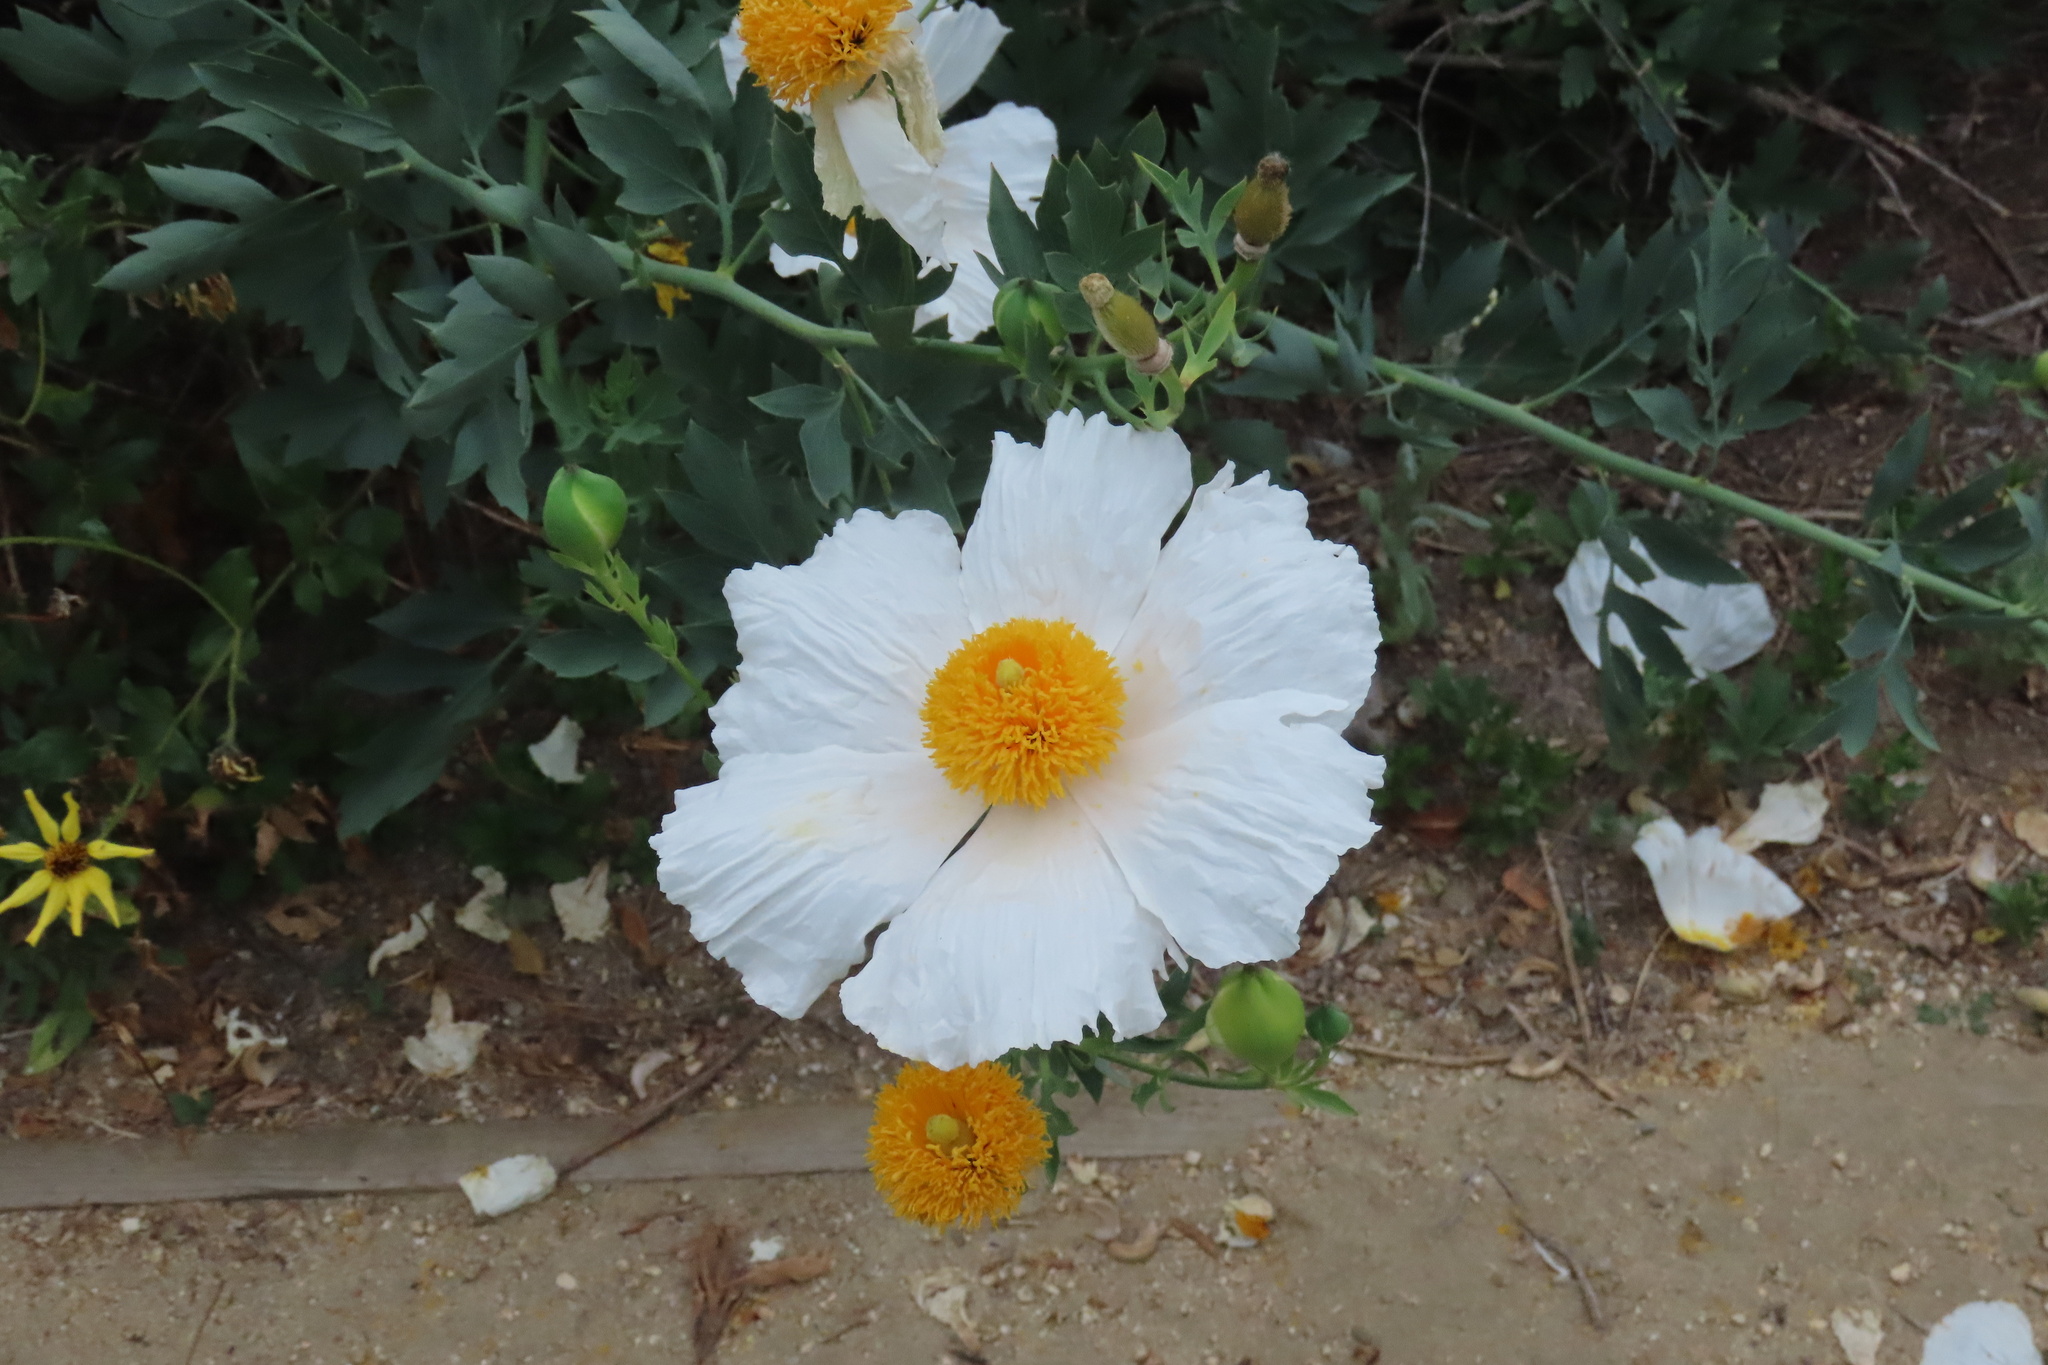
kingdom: Plantae
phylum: Tracheophyta
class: Magnoliopsida
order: Ranunculales
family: Papaveraceae
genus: Romneya
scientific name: Romneya coulteri
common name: California tree-poppy
